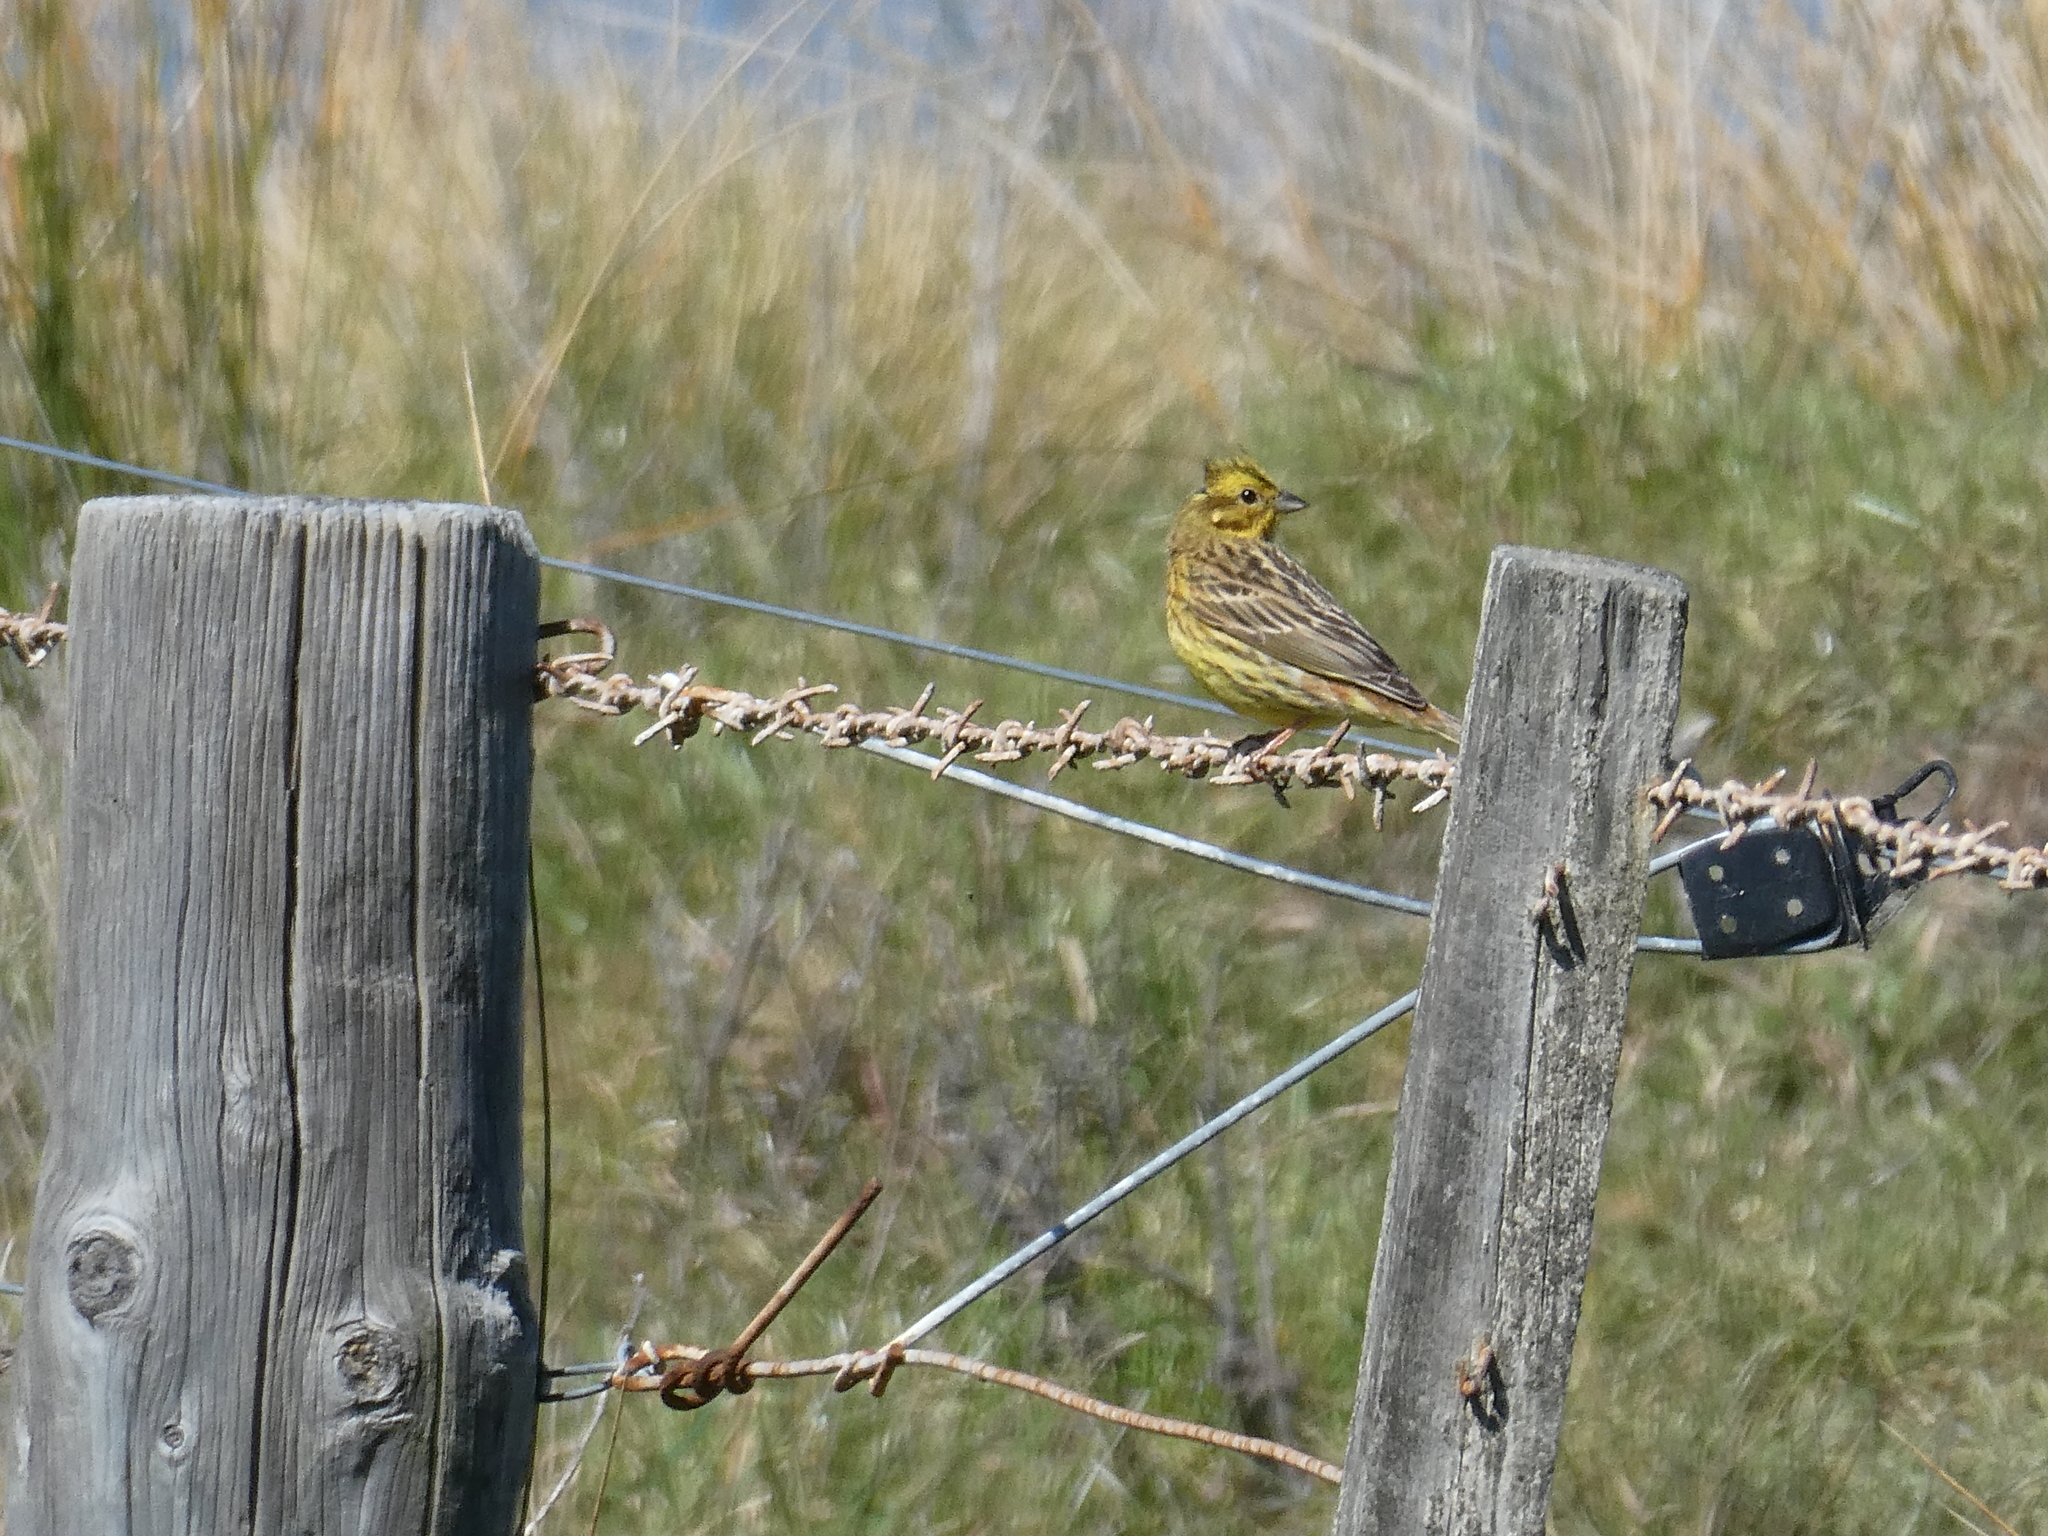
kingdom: Animalia
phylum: Chordata
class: Aves
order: Passeriformes
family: Emberizidae
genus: Emberiza
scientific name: Emberiza citrinella
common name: Yellowhammer
